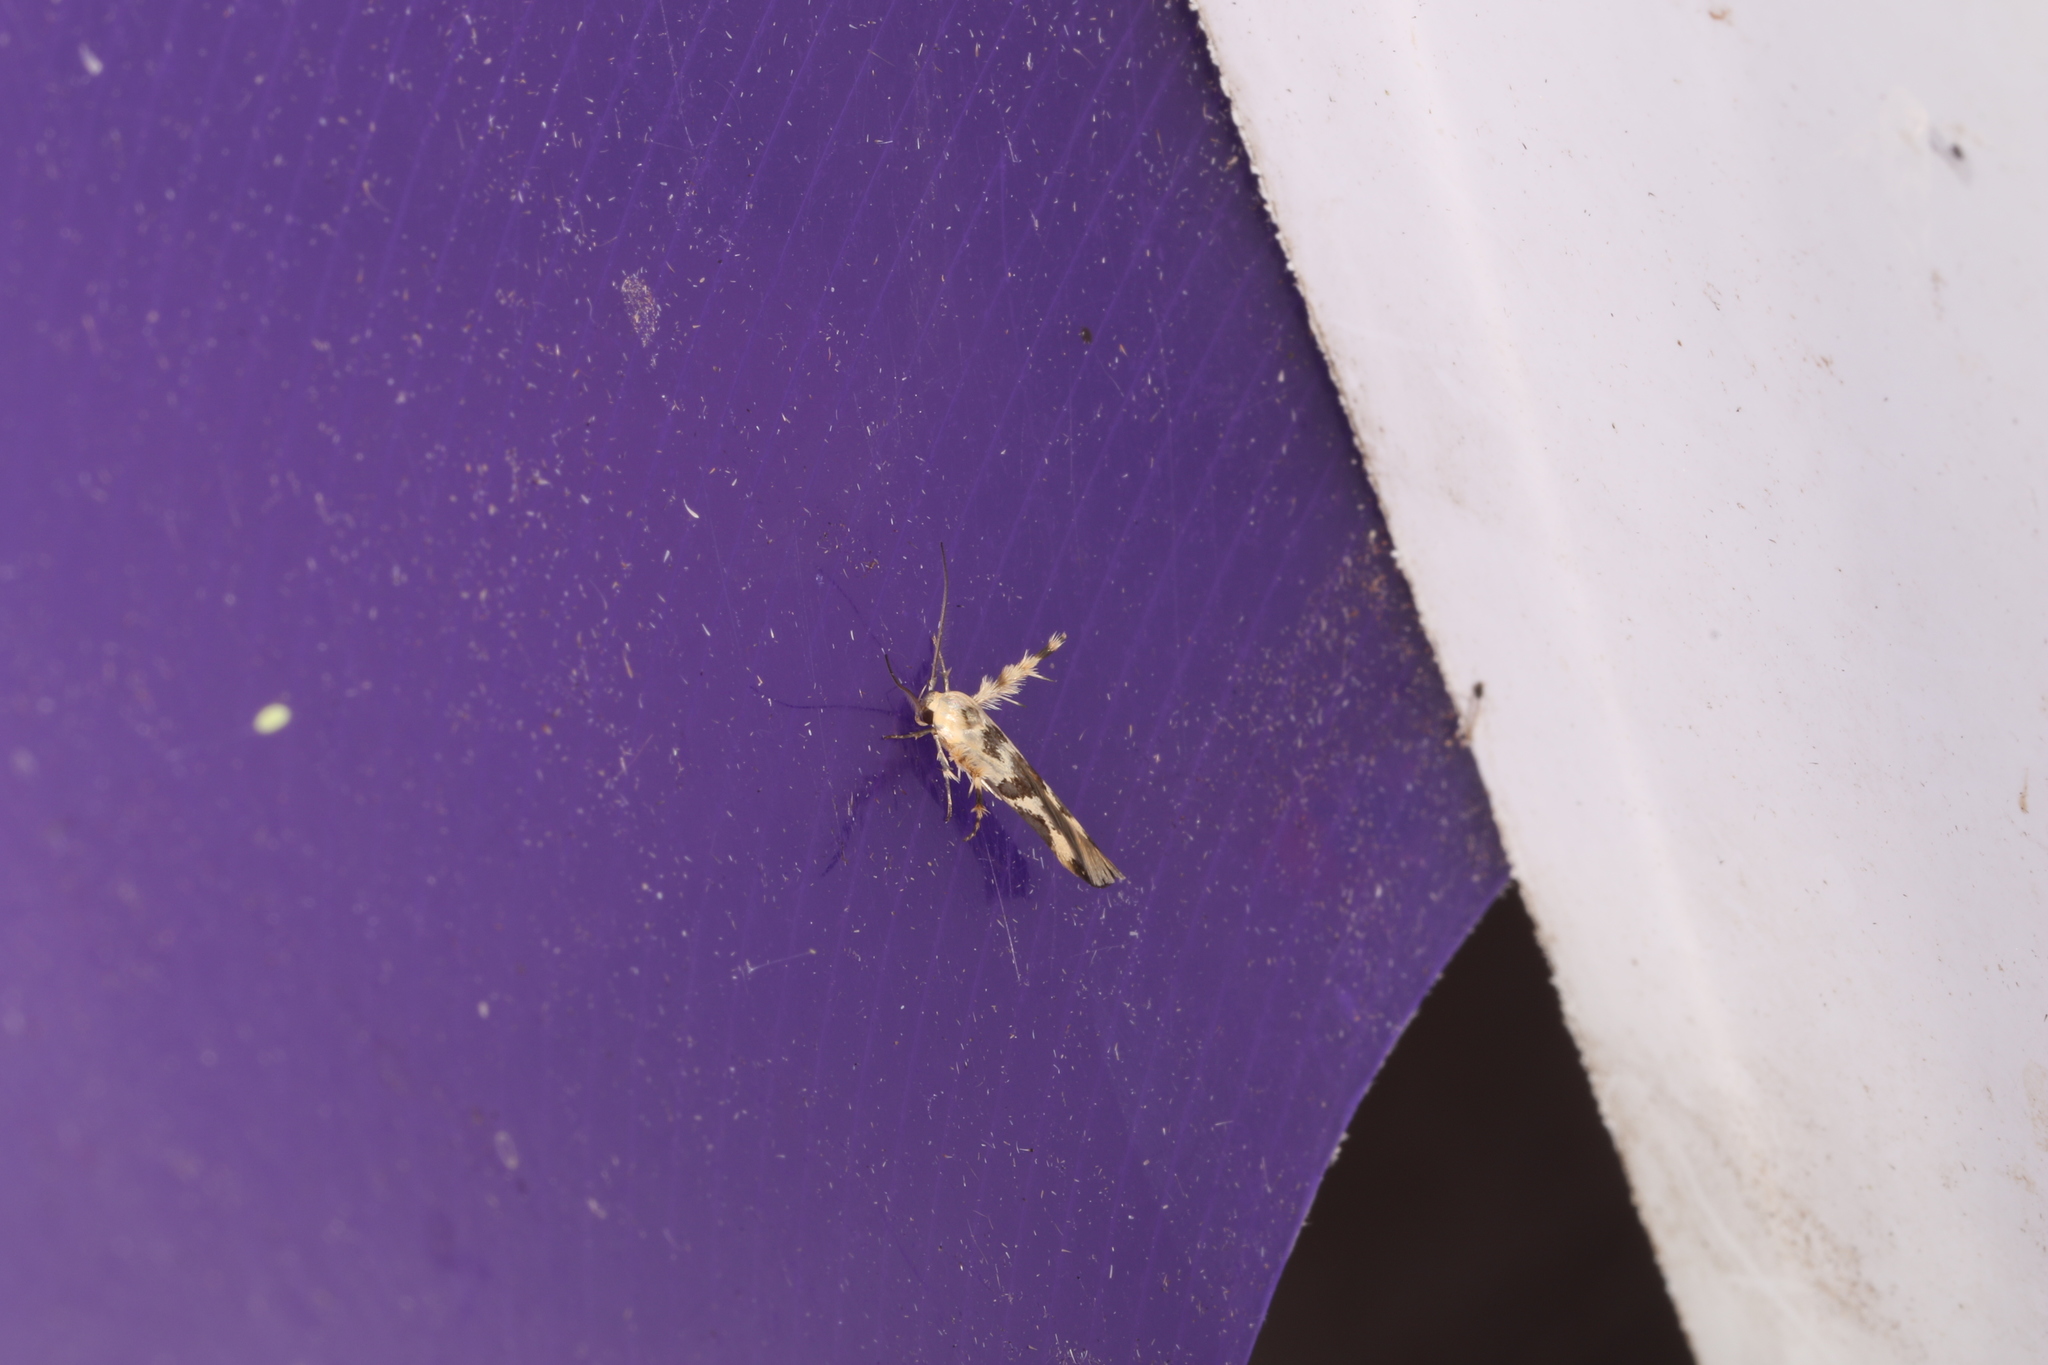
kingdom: Animalia
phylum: Arthropoda
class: Insecta
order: Lepidoptera
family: Stathmopodidae
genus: Stathmopoda
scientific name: Stathmopoda melanochra
